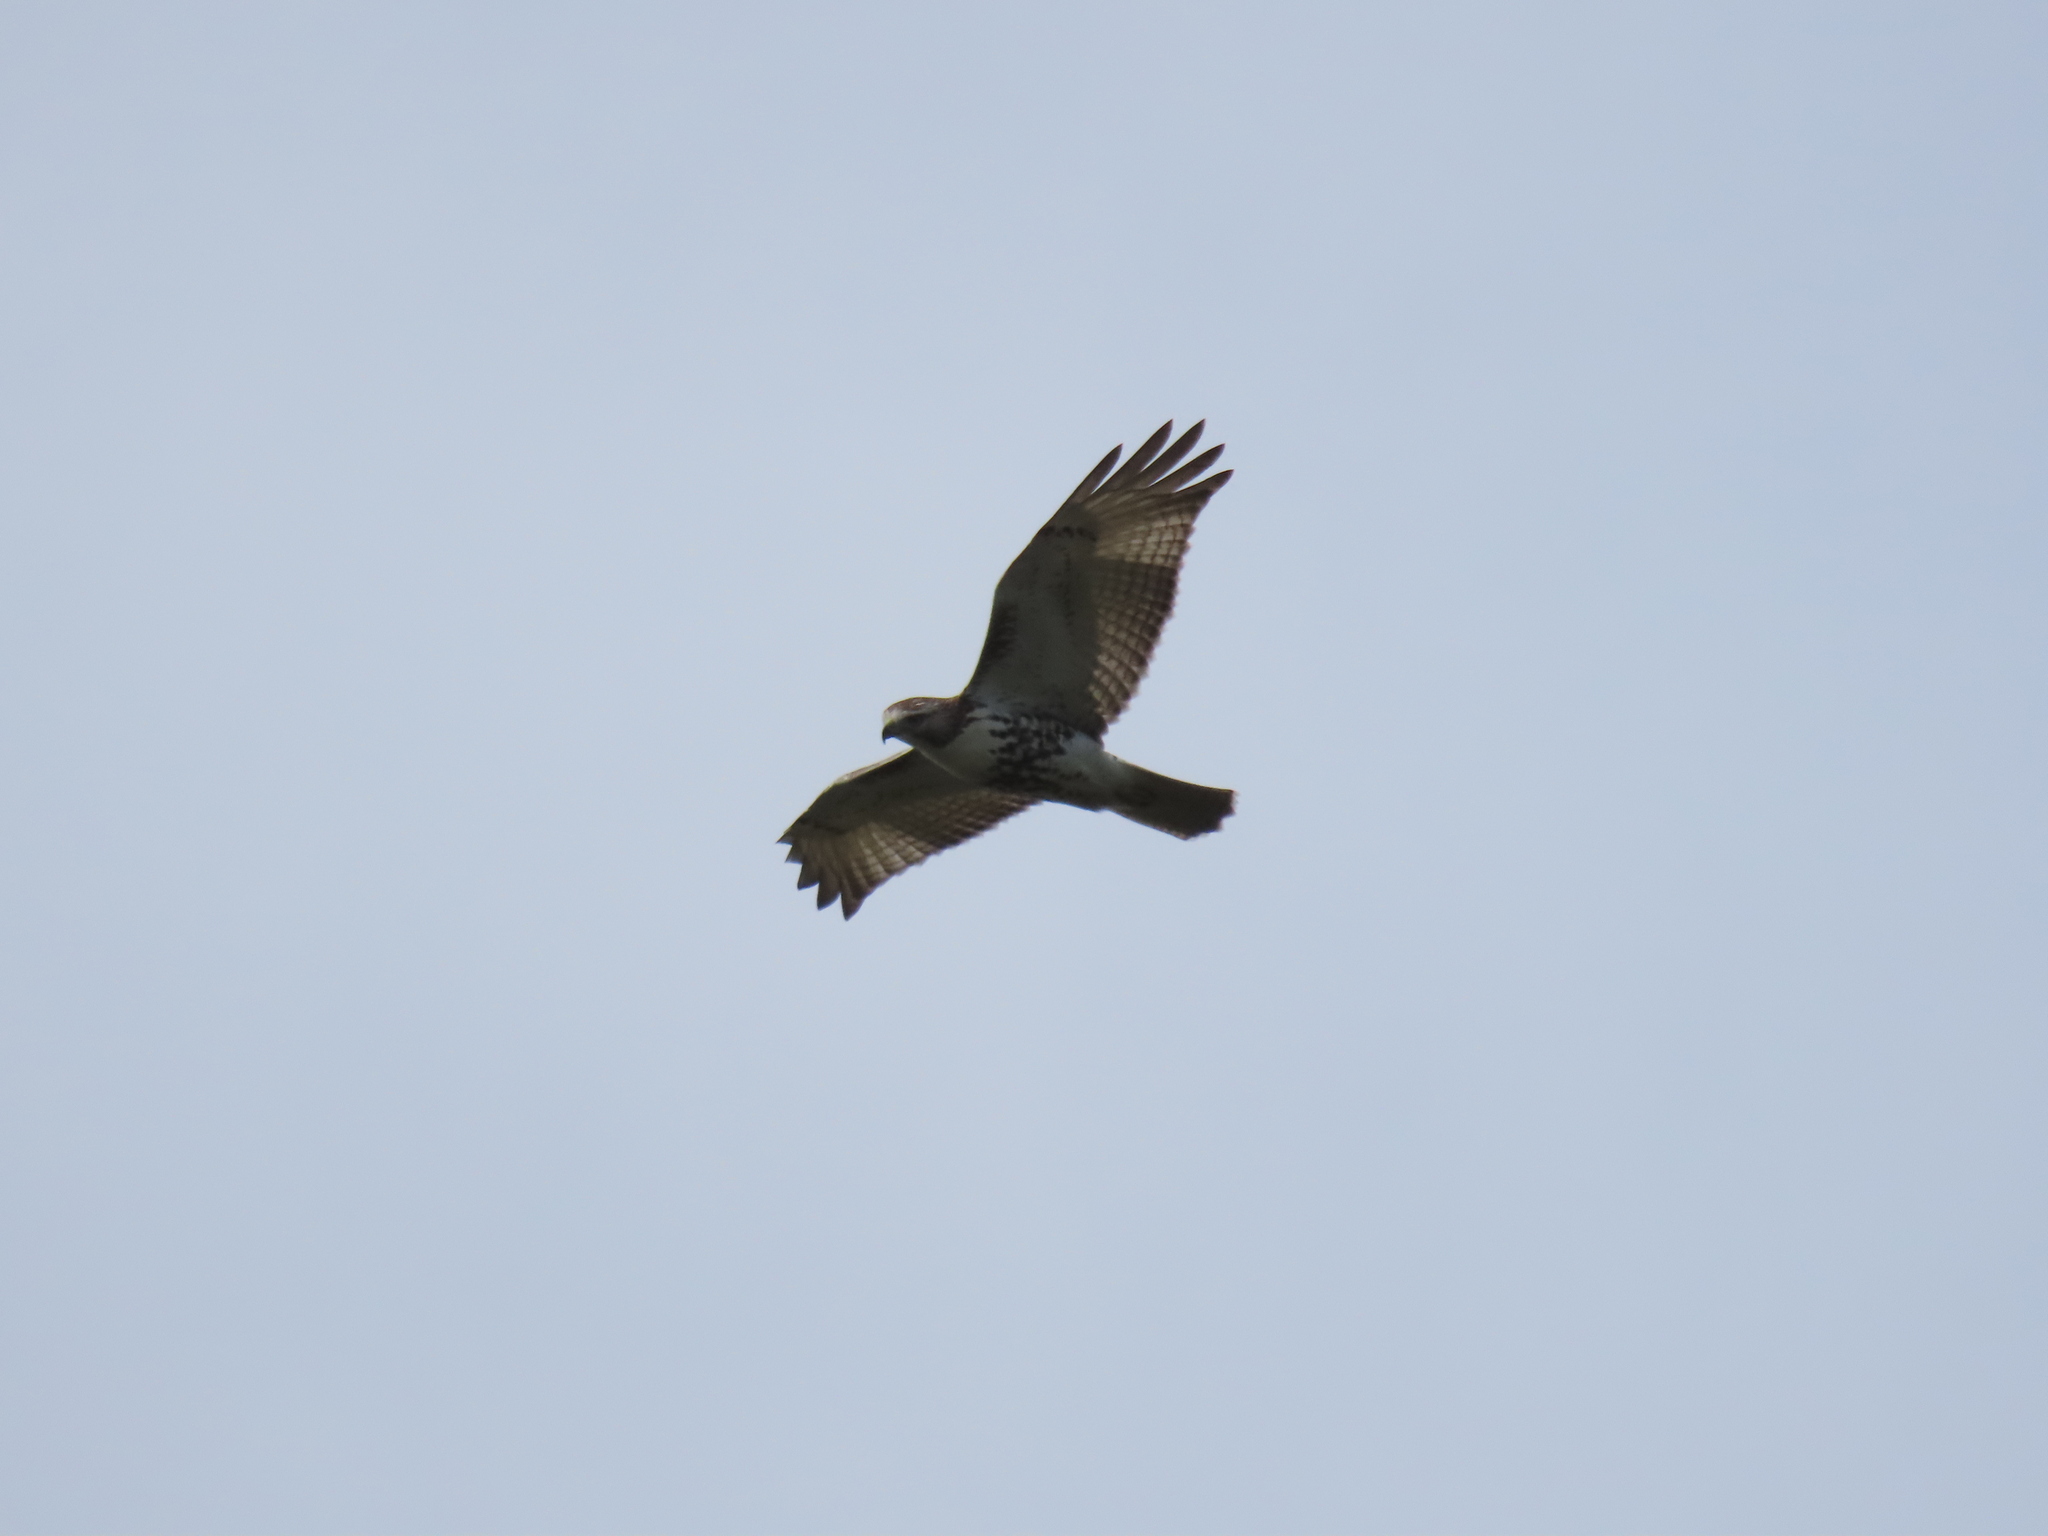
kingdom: Animalia
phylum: Chordata
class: Aves
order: Accipitriformes
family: Accipitridae
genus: Buteo
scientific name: Buteo jamaicensis
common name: Red-tailed hawk
